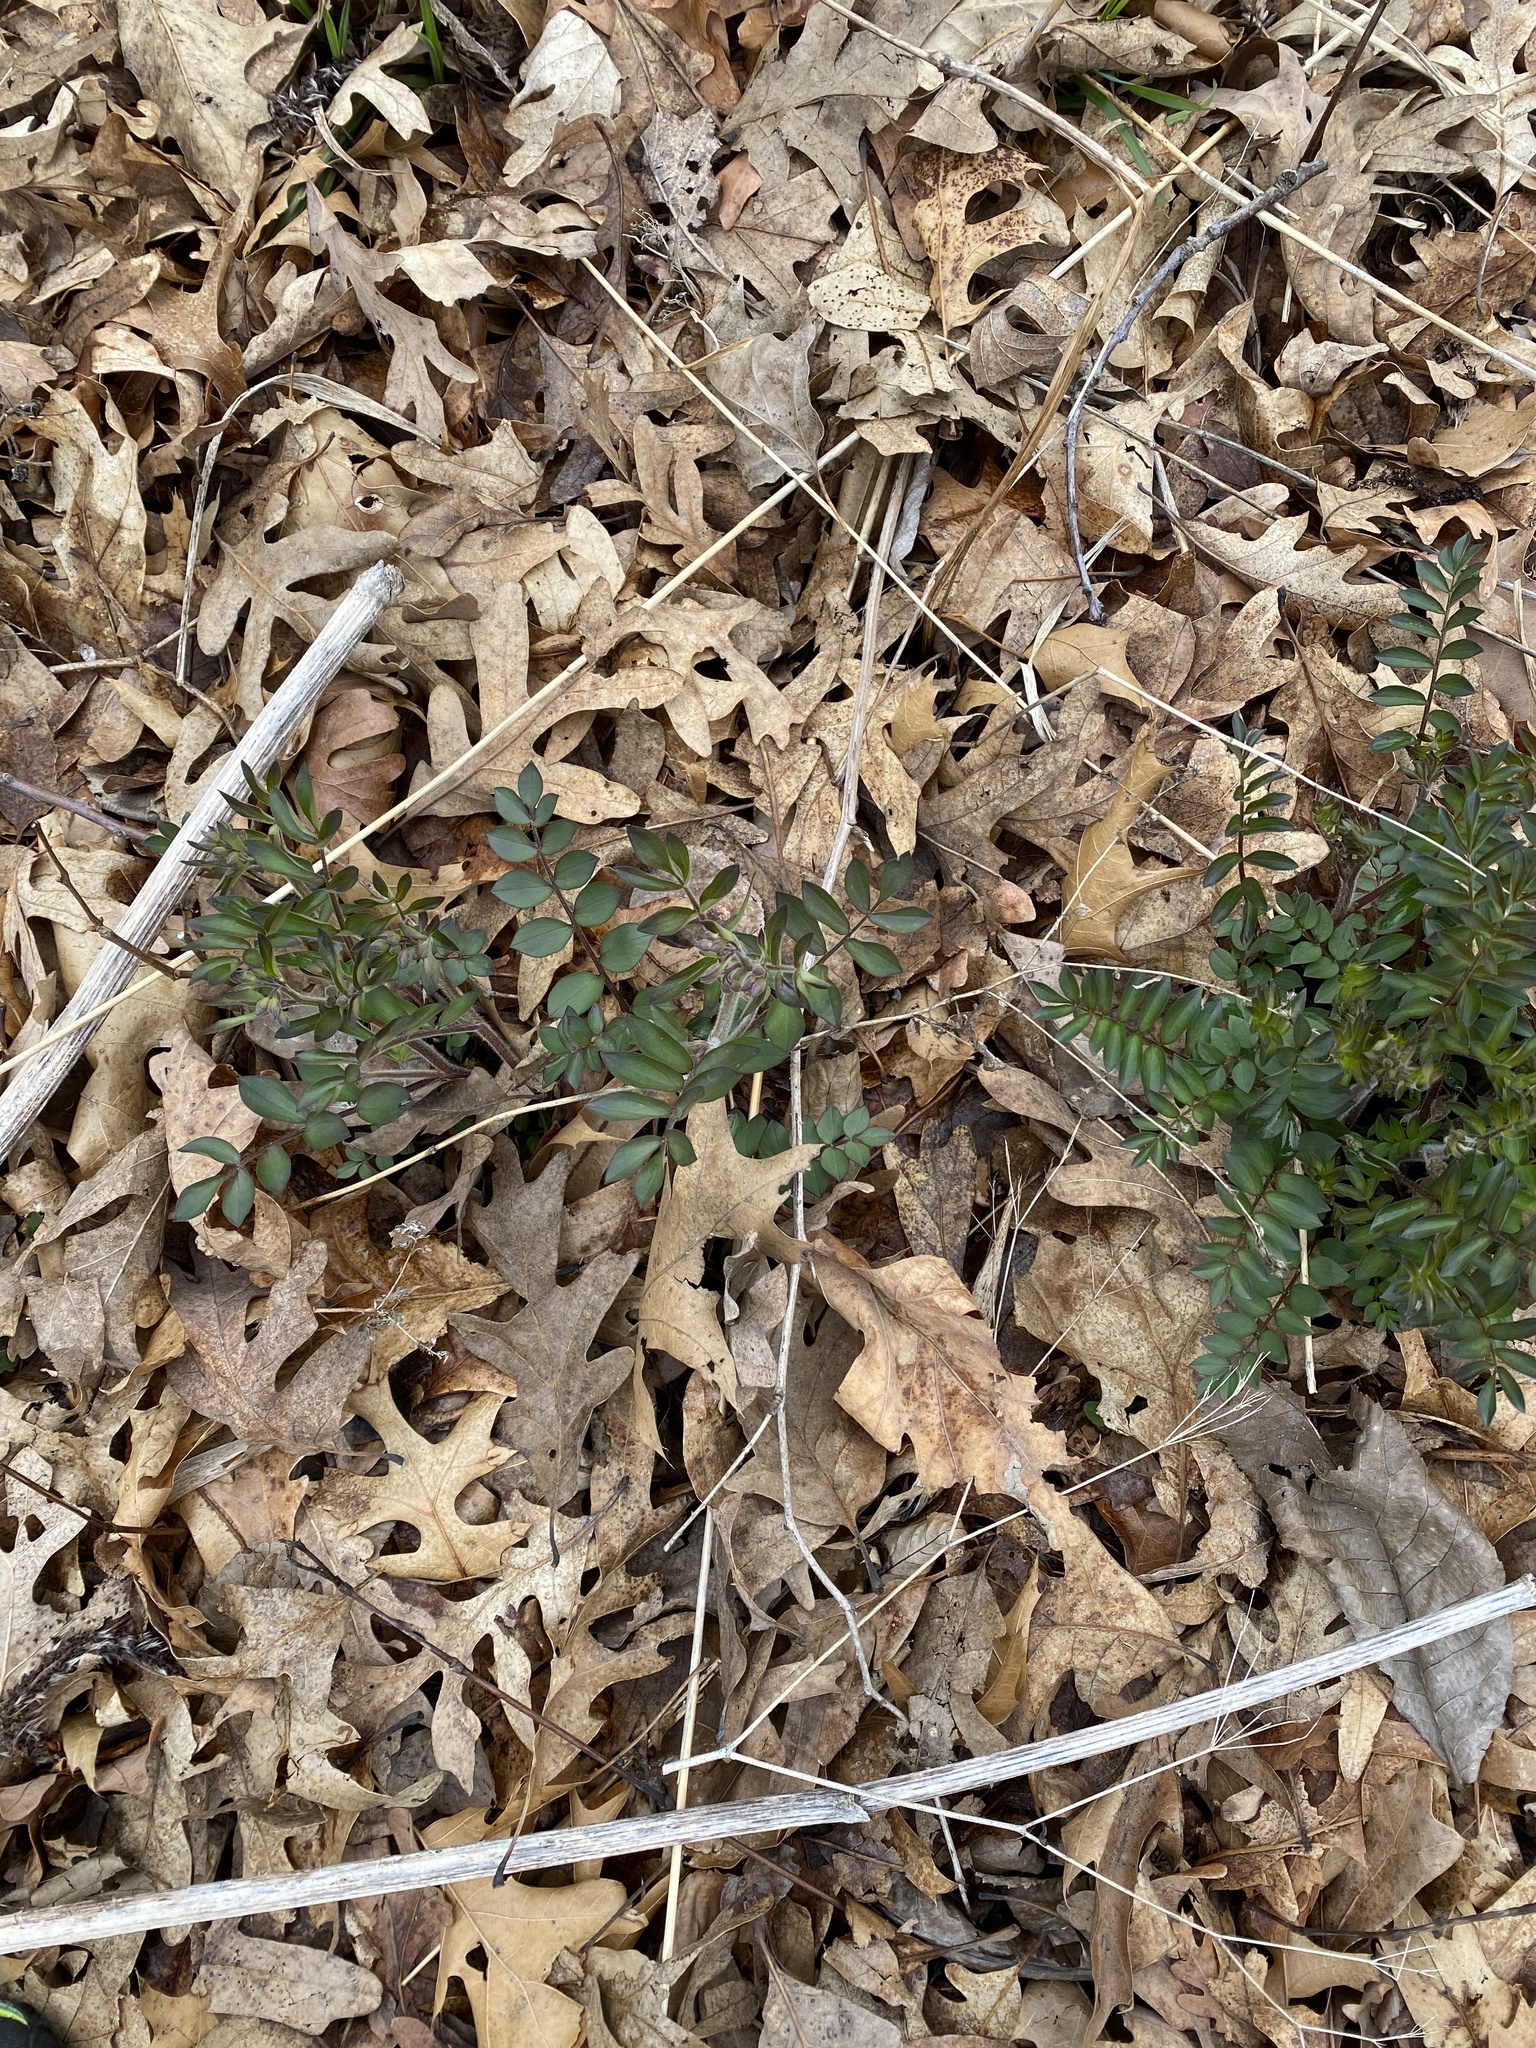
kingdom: Plantae
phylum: Tracheophyta
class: Magnoliopsida
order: Ericales
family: Polemoniaceae
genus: Polemonium
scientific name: Polemonium reptans
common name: Creeping jacob's-ladder
